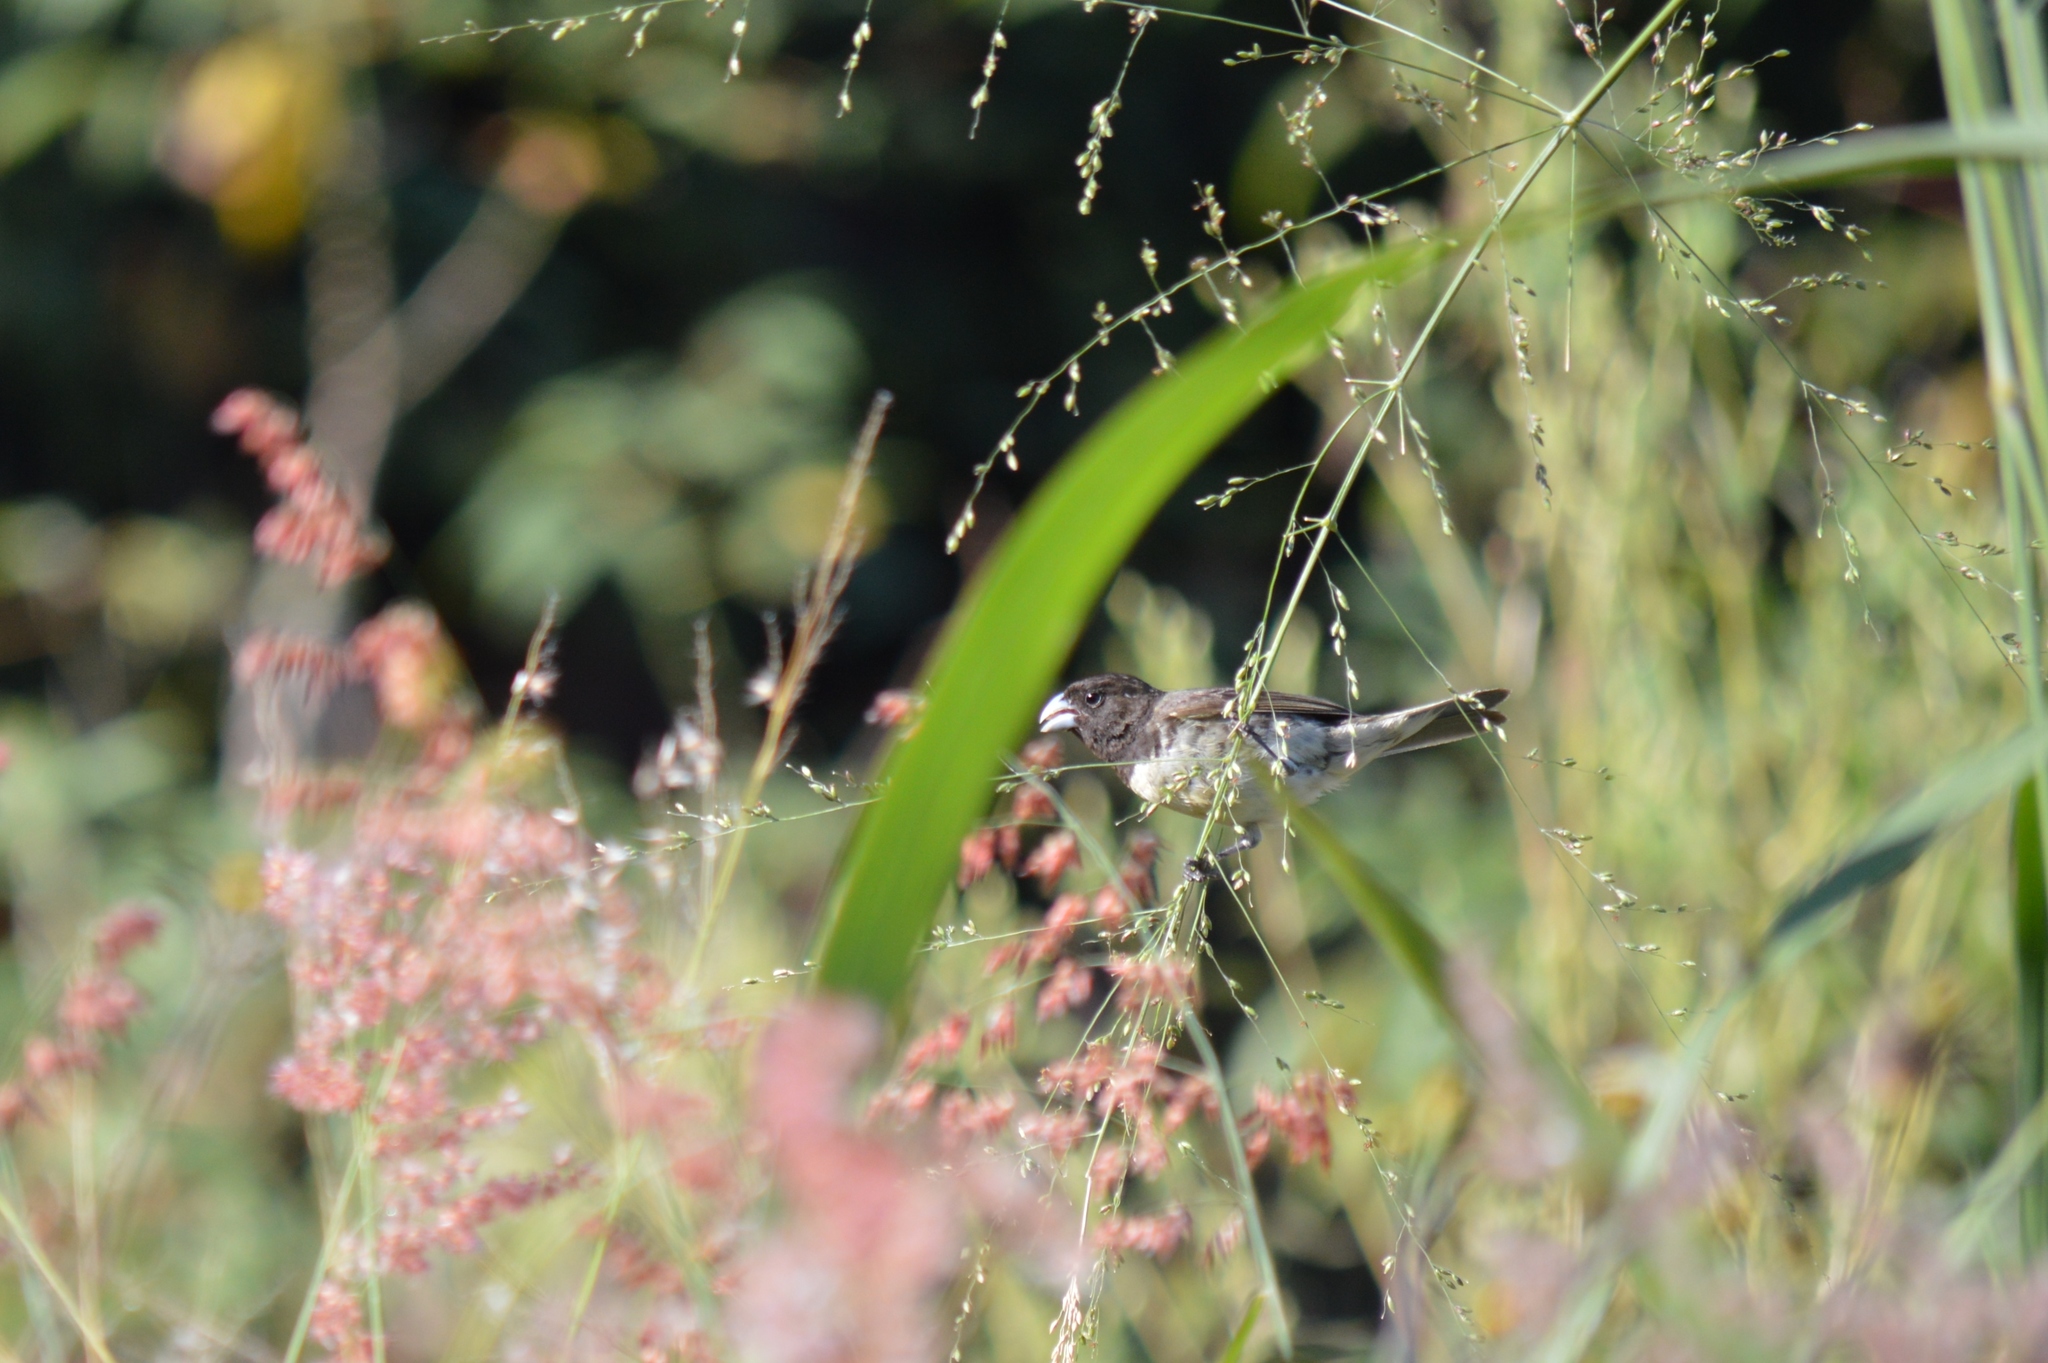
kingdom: Animalia
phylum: Chordata
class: Aves
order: Passeriformes
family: Thraupidae
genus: Sporophila
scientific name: Sporophila nigricollis
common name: Yellow-bellied seedeater
